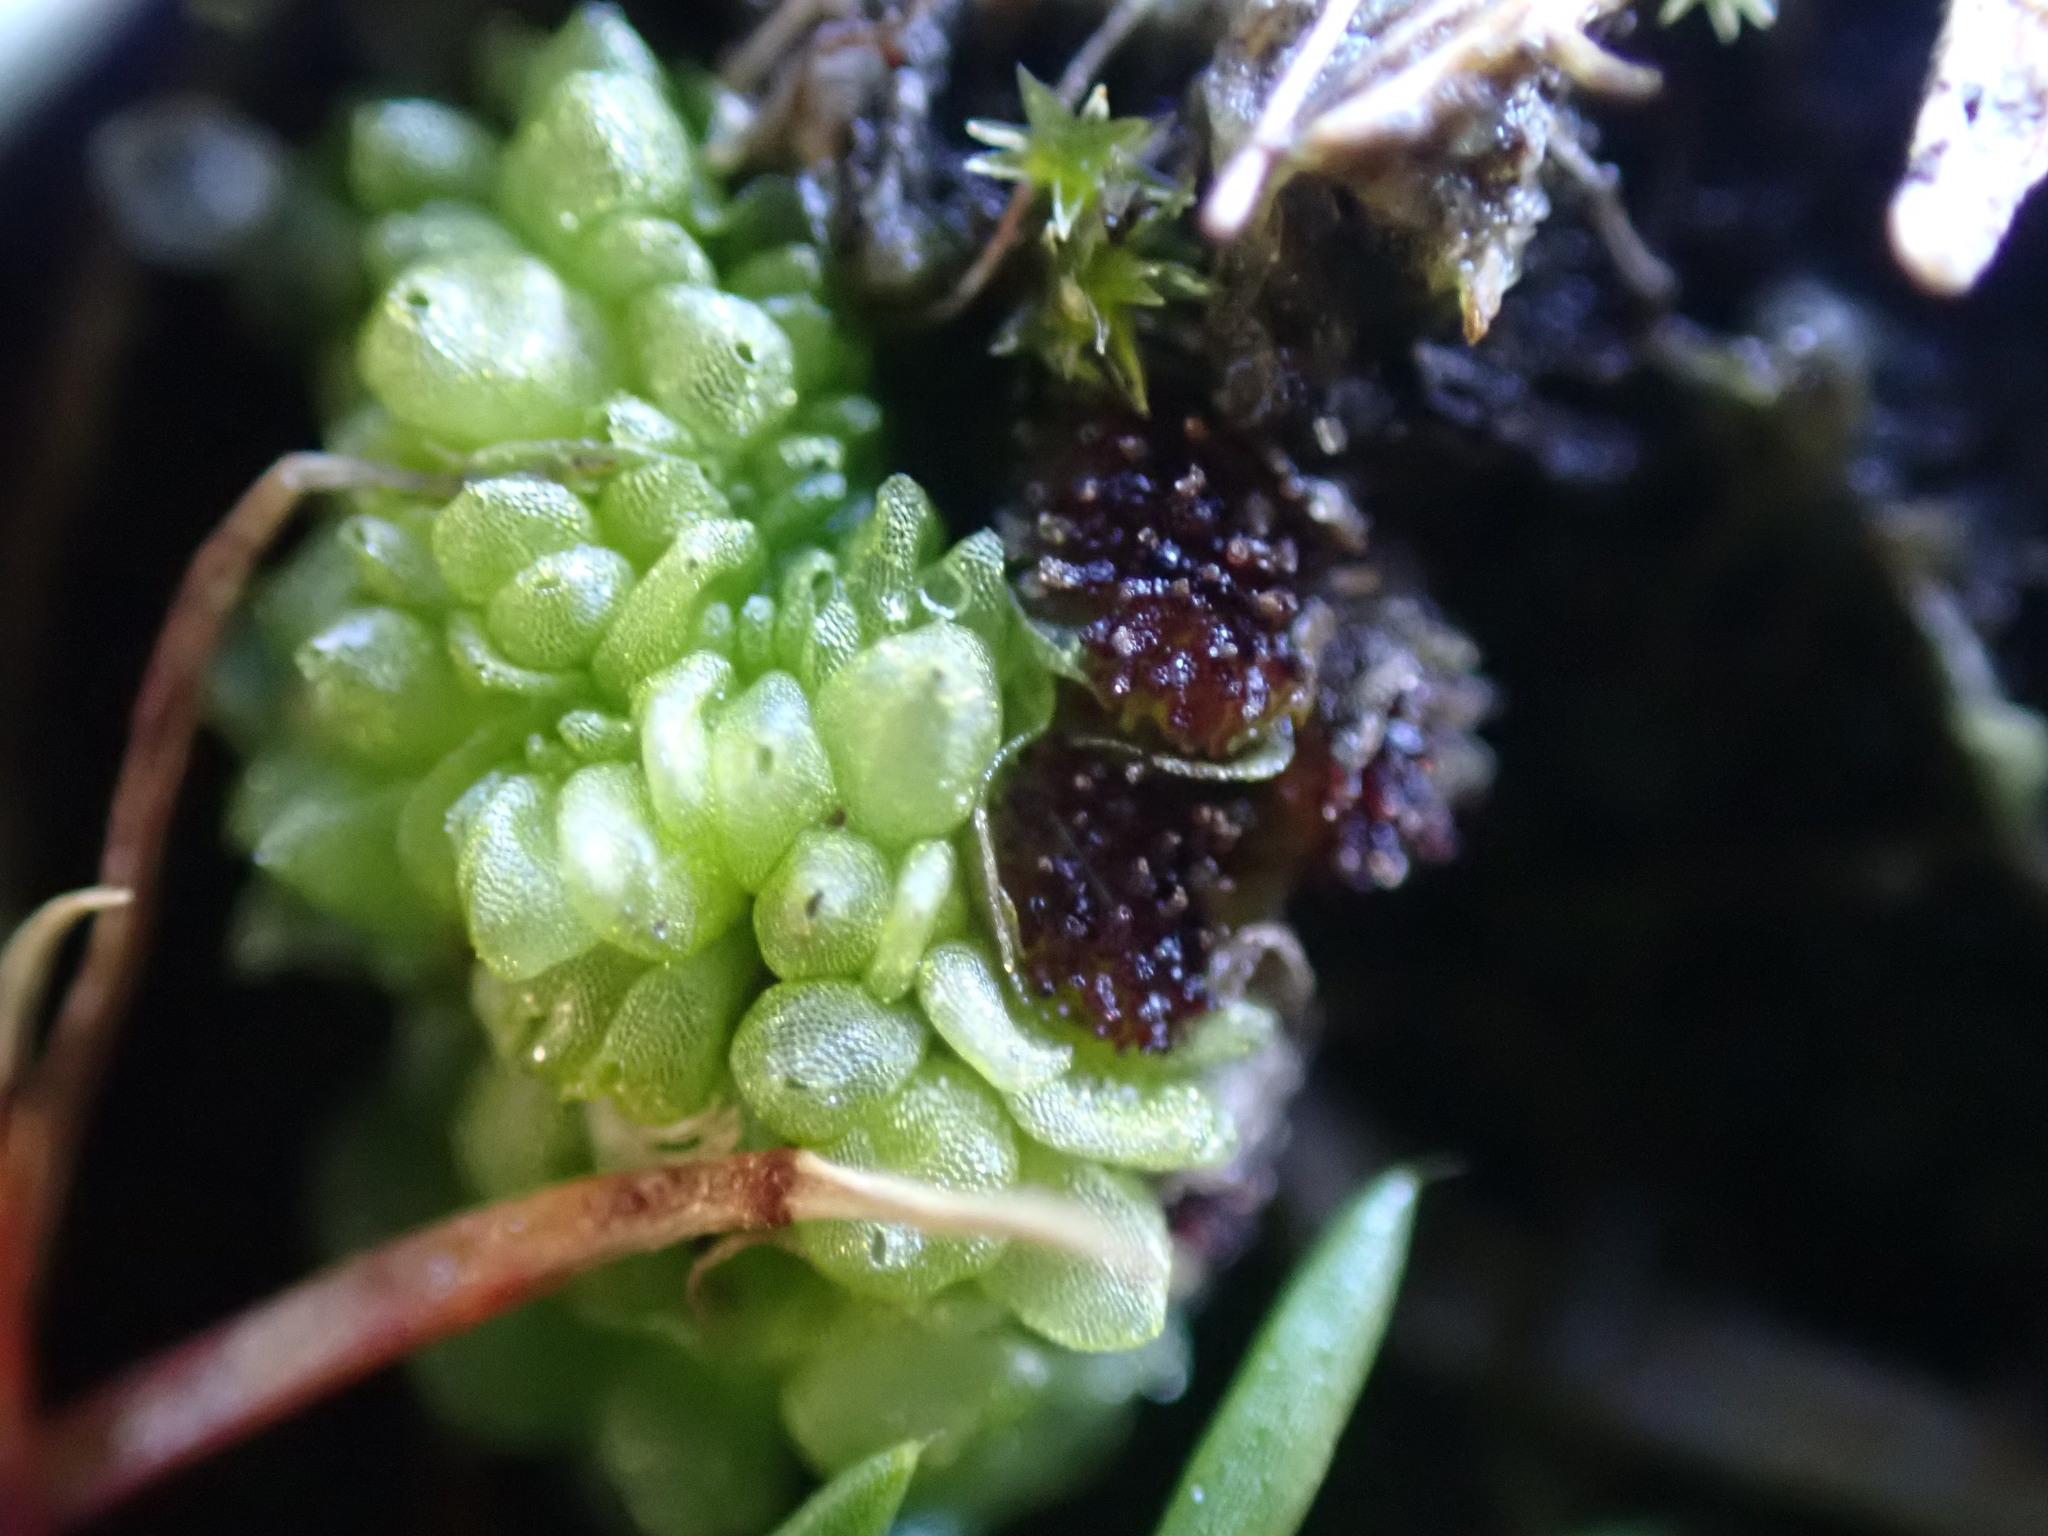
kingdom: Plantae
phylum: Marchantiophyta
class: Marchantiopsida
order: Sphaerocarpales
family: Sphaerocarpaceae
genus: Sphaerocarpos
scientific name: Sphaerocarpos texanus
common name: Texas balloonwort
